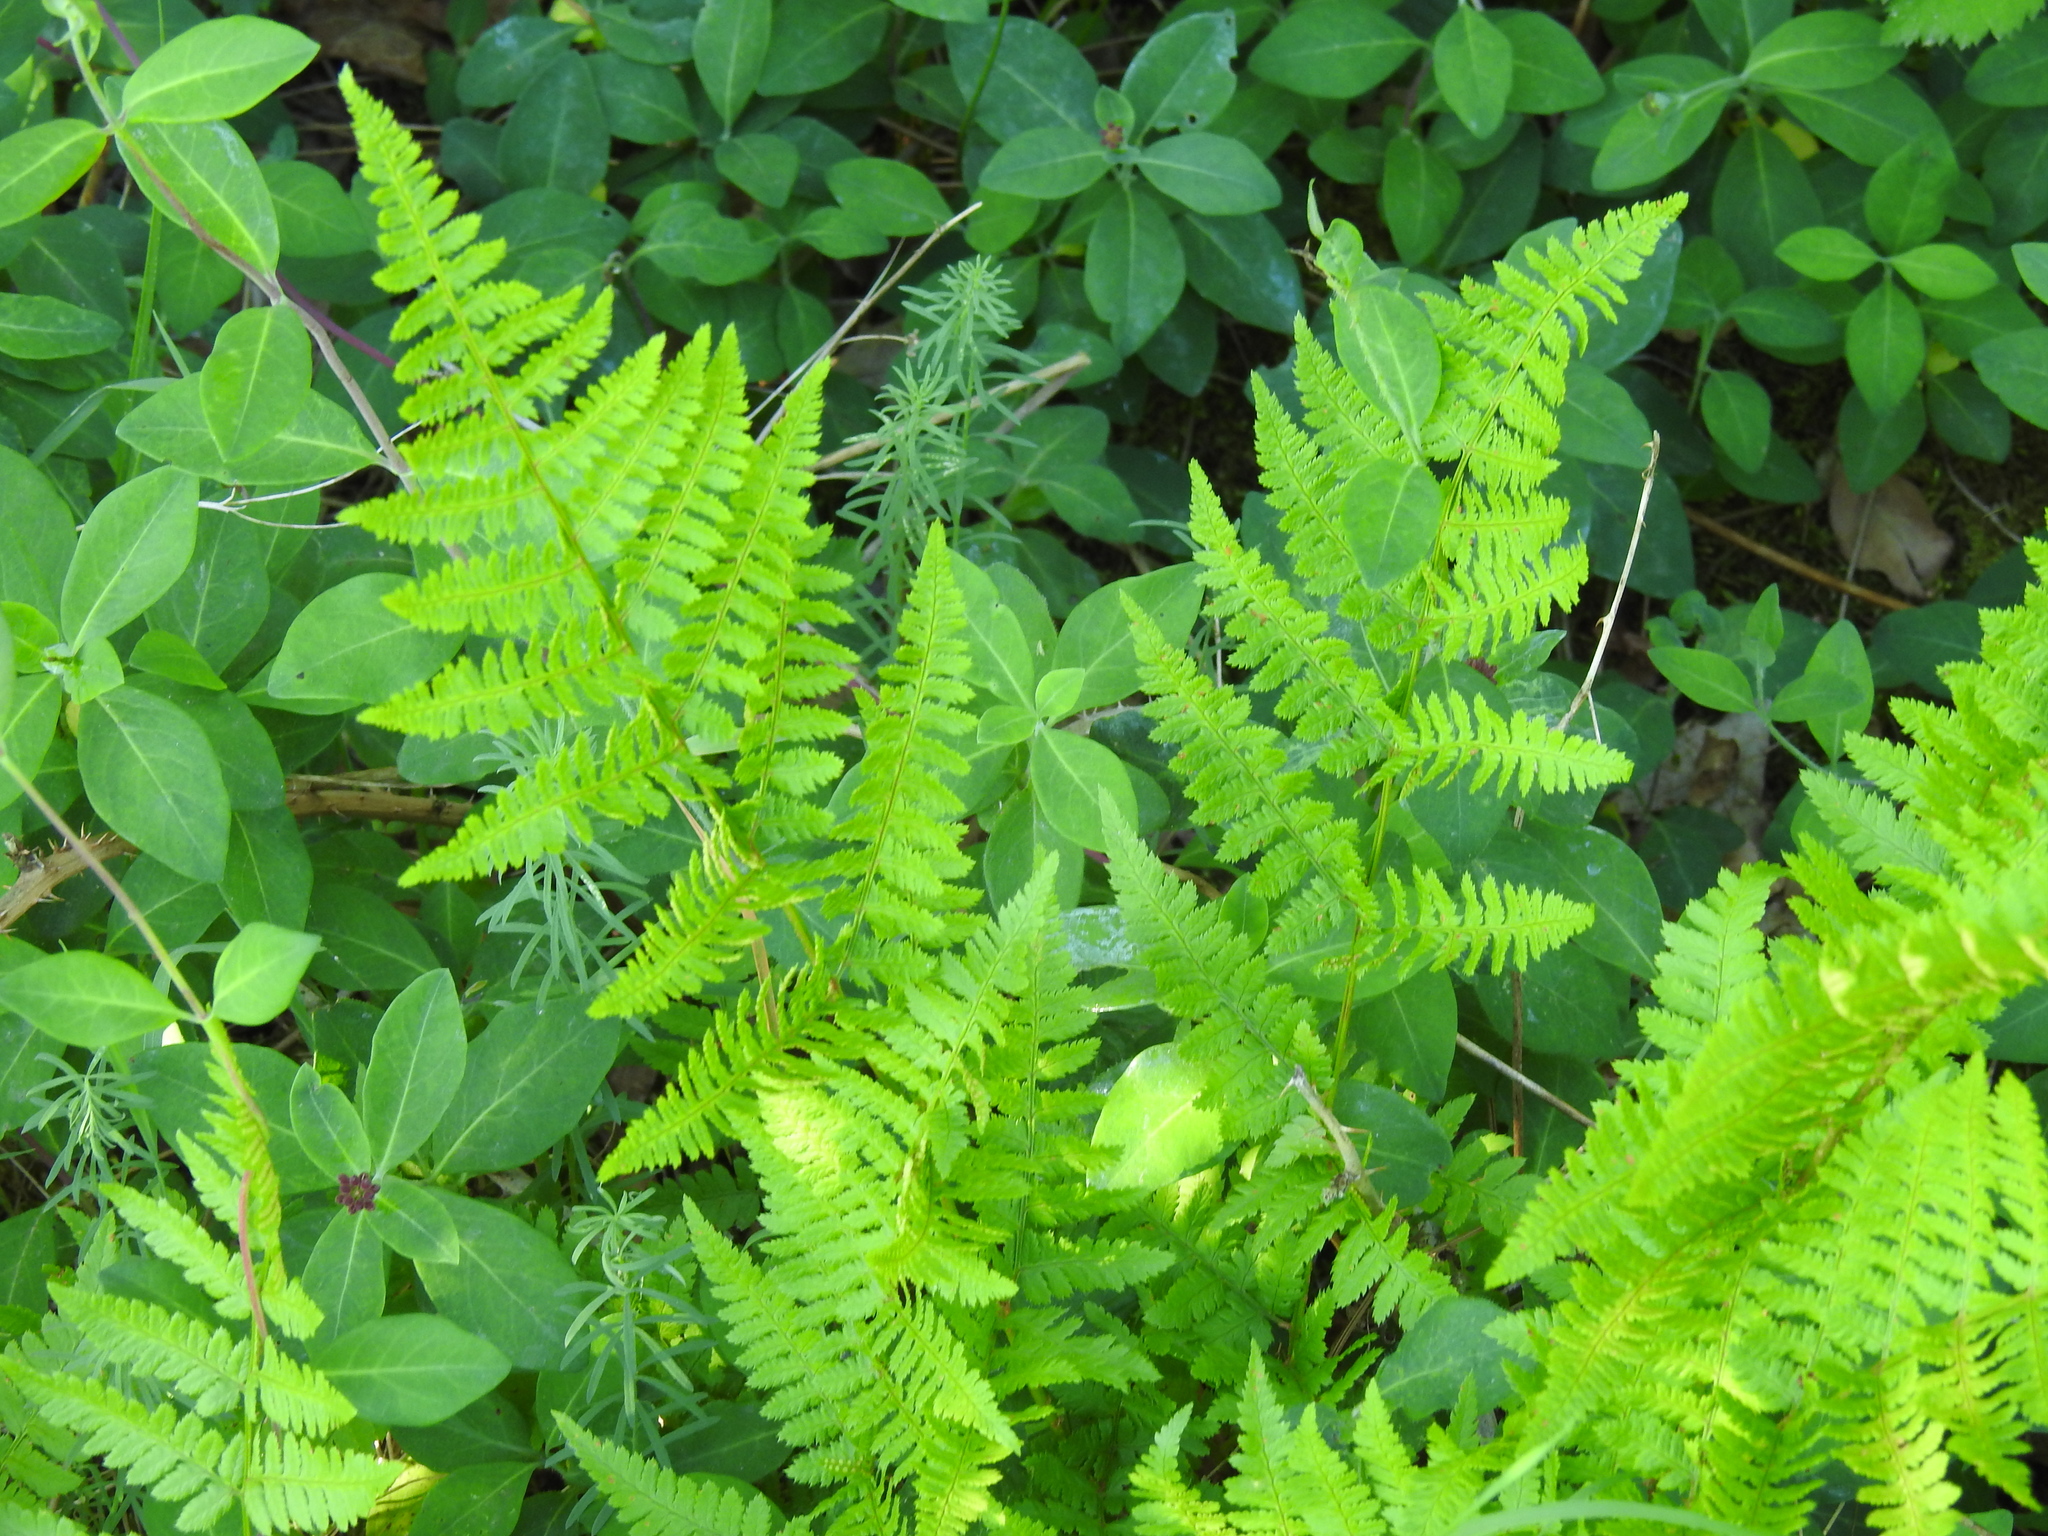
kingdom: Plantae
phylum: Tracheophyta
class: Polypodiopsida
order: Polypodiales
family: Dryopteridaceae
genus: Dryopteris
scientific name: Dryopteris carthusiana
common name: Narrow buckler-fern
